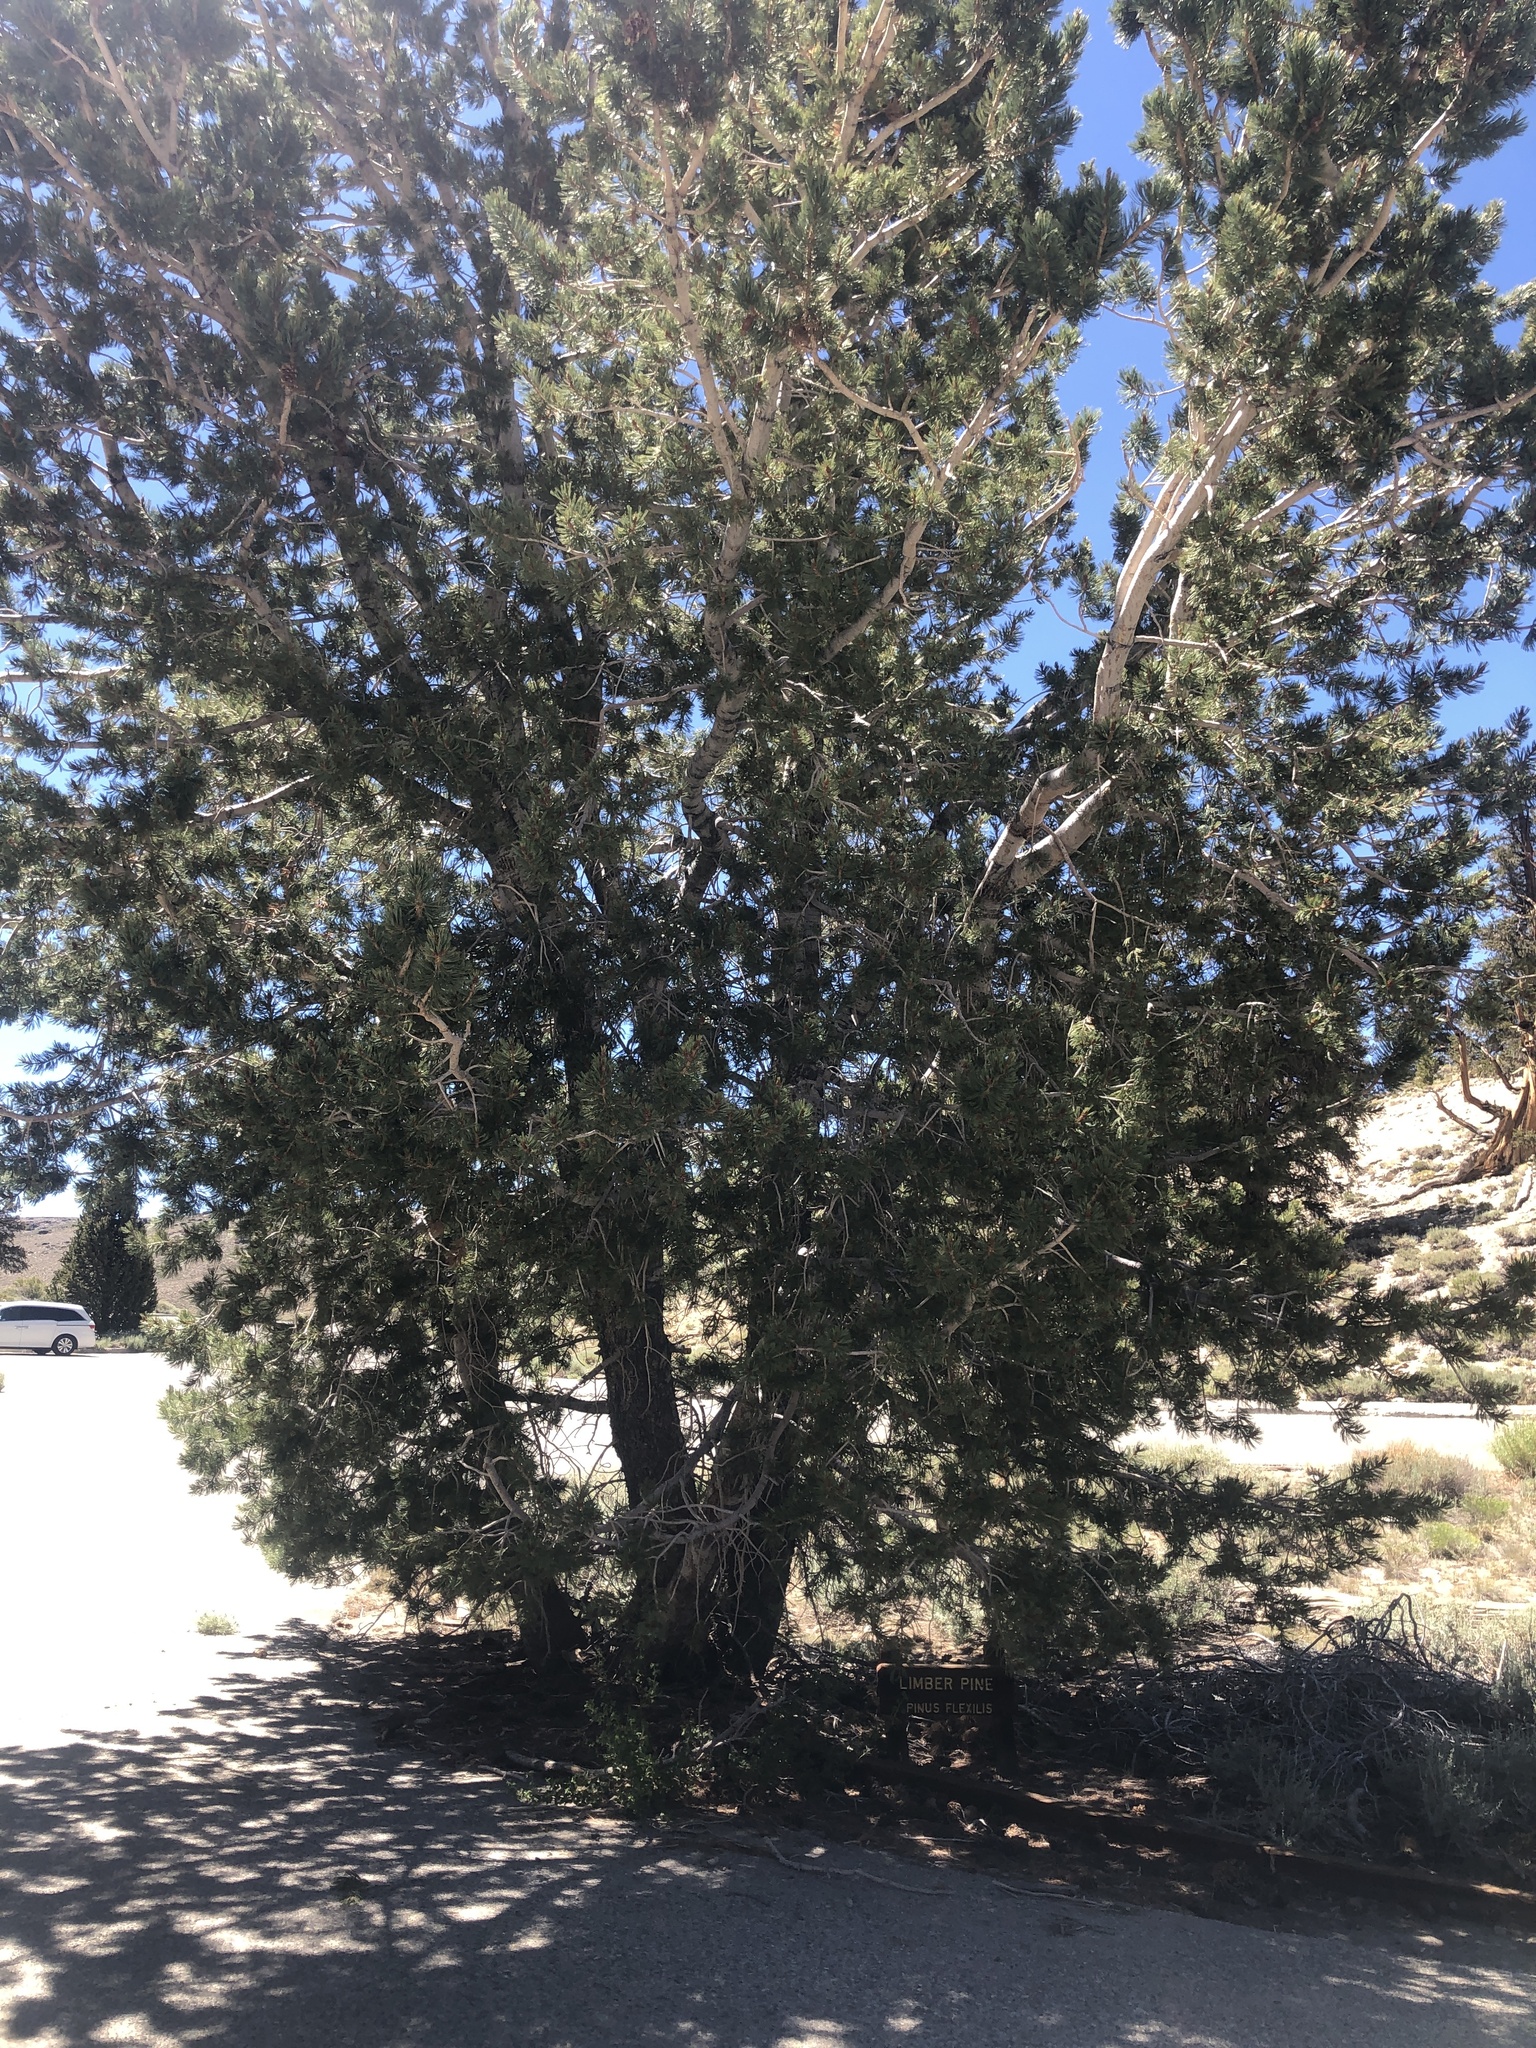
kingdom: Plantae
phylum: Tracheophyta
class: Pinopsida
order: Pinales
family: Pinaceae
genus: Pinus
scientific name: Pinus flexilis
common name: Limber pine
